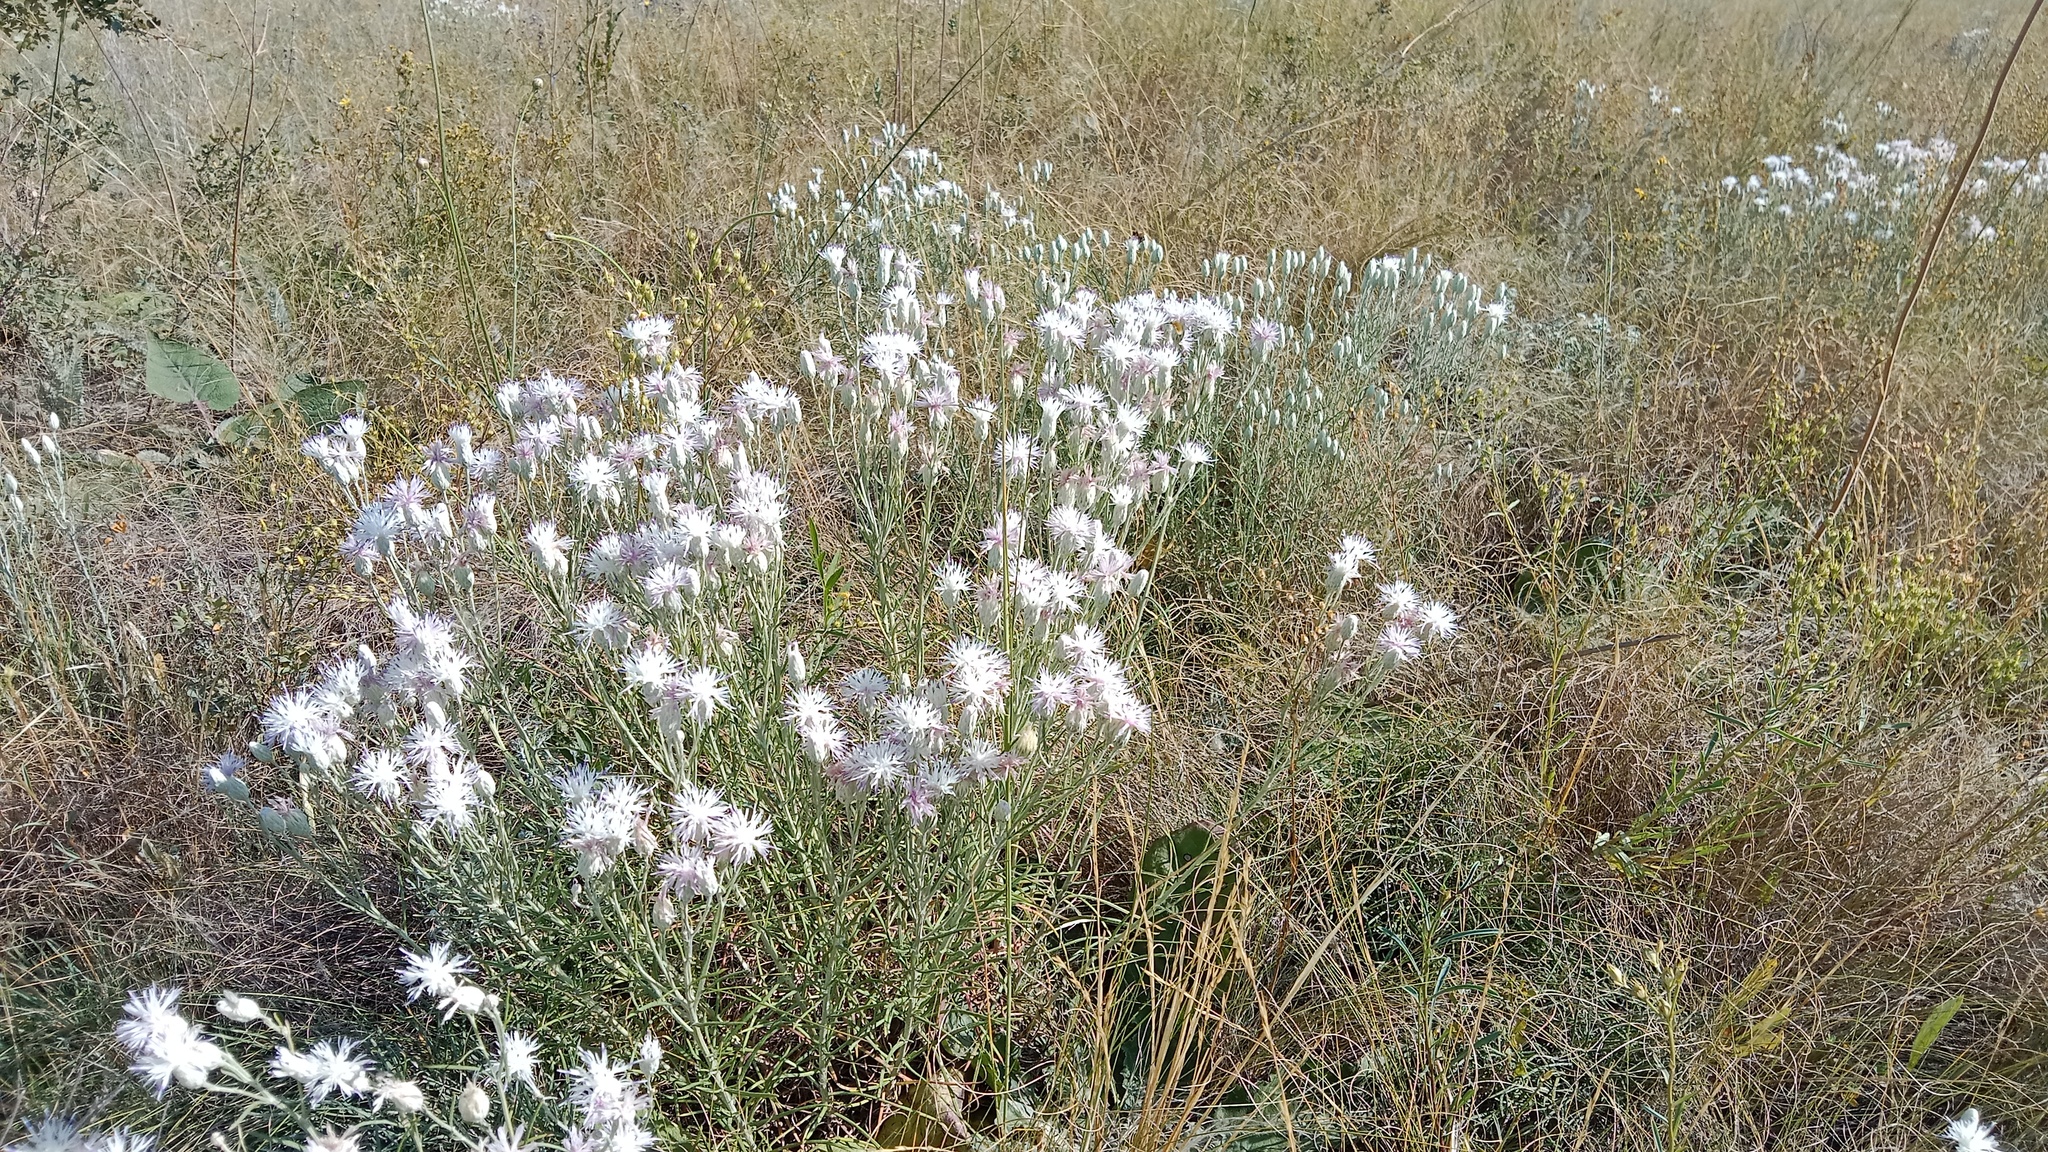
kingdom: Plantae
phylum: Tracheophyta
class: Magnoliopsida
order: Asterales
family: Asteraceae
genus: Jurinea
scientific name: Jurinea stoechadifolia
